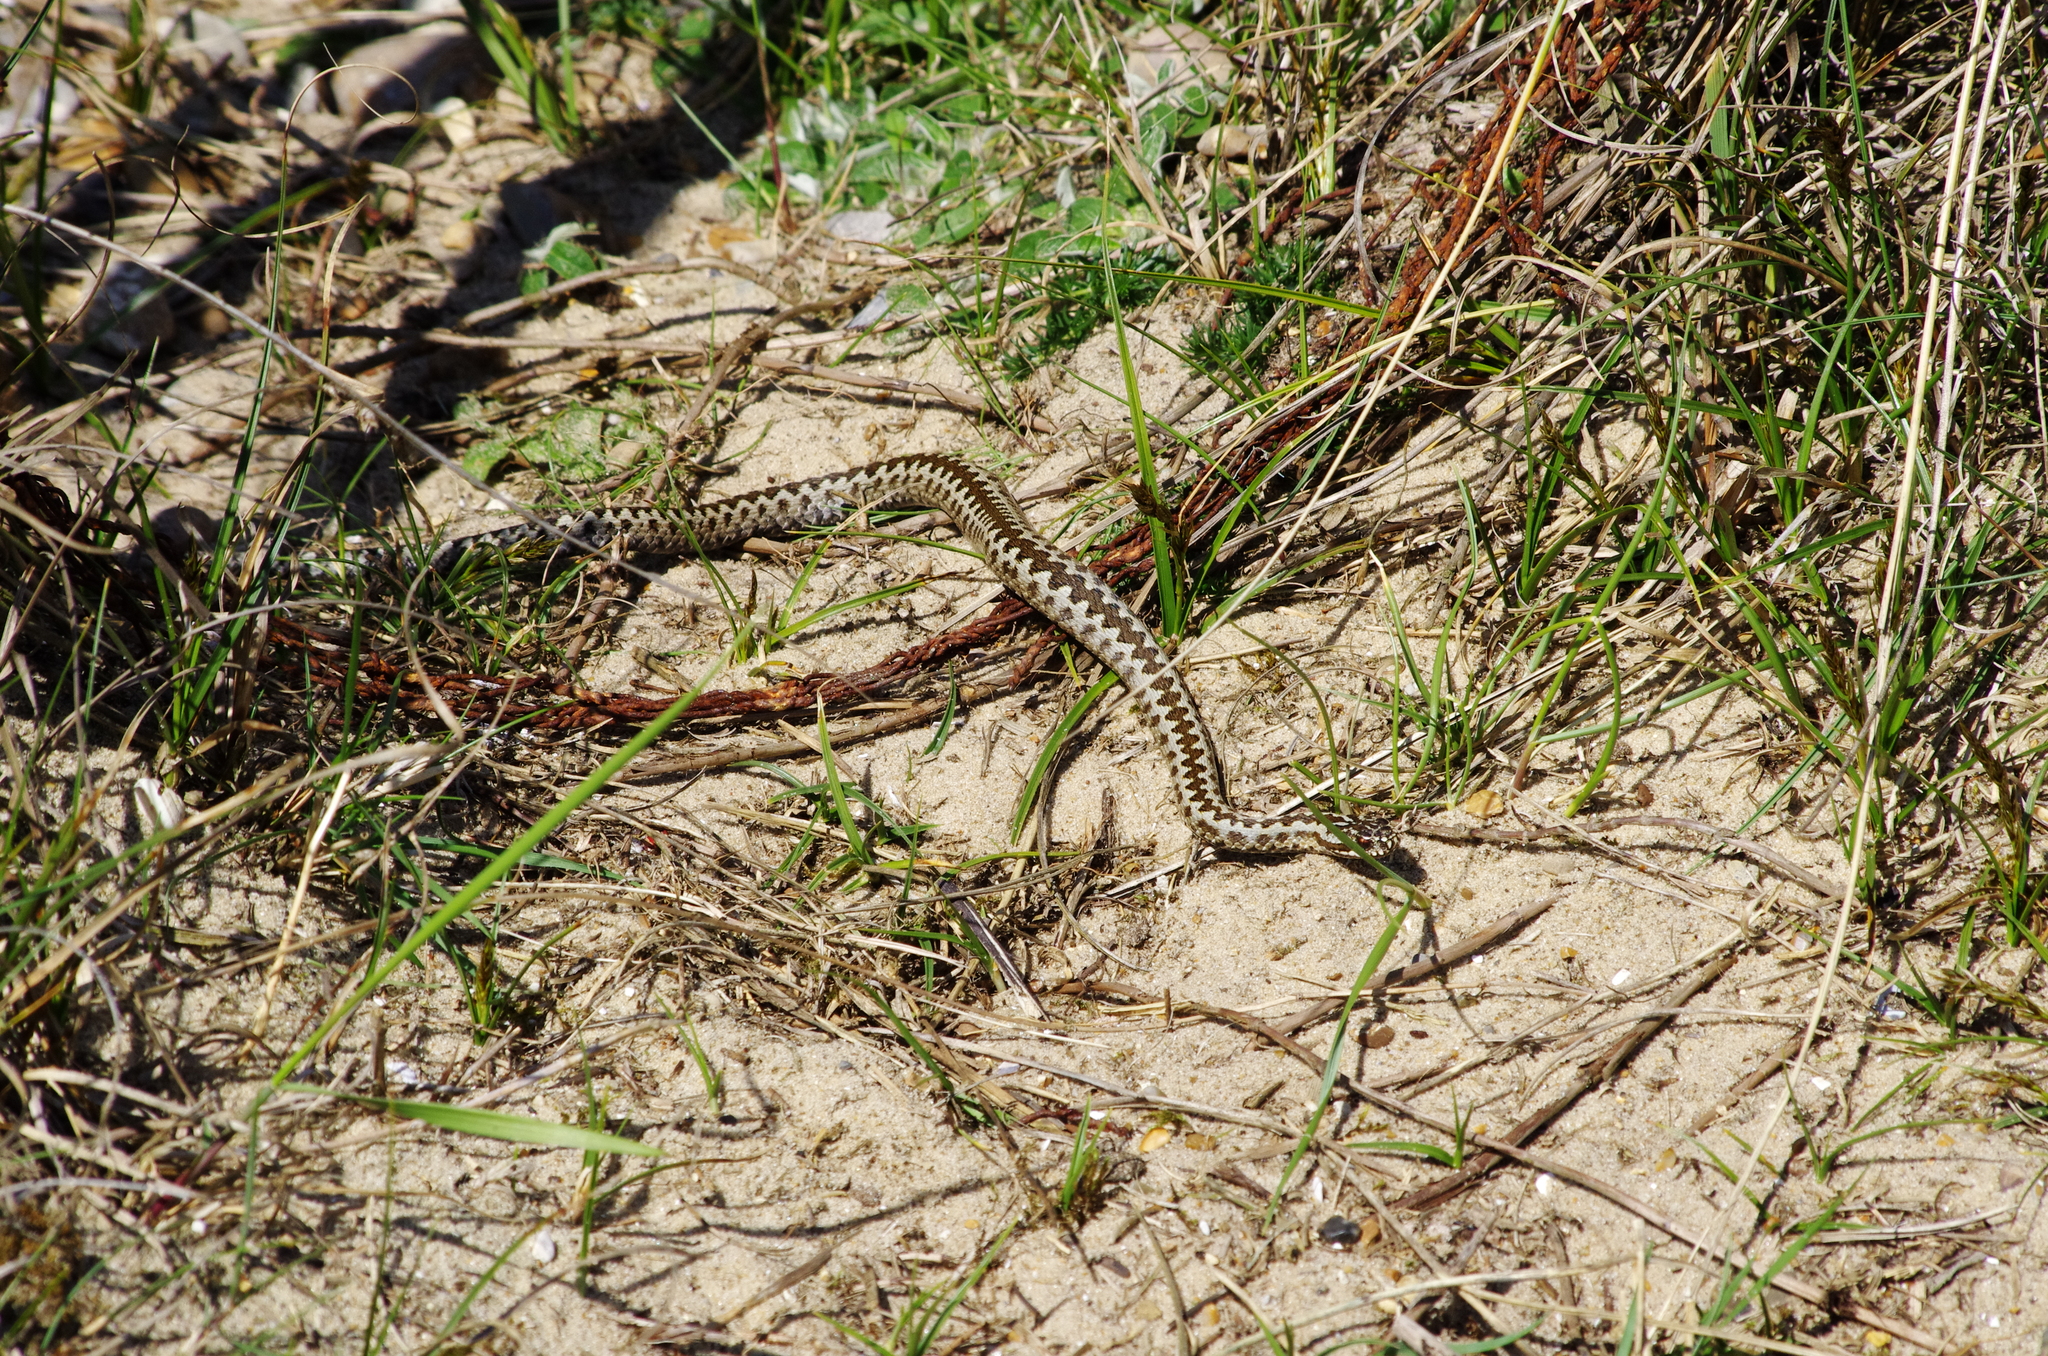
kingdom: Animalia
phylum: Chordata
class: Squamata
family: Viperidae
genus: Vipera
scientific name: Vipera berus
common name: Adder
